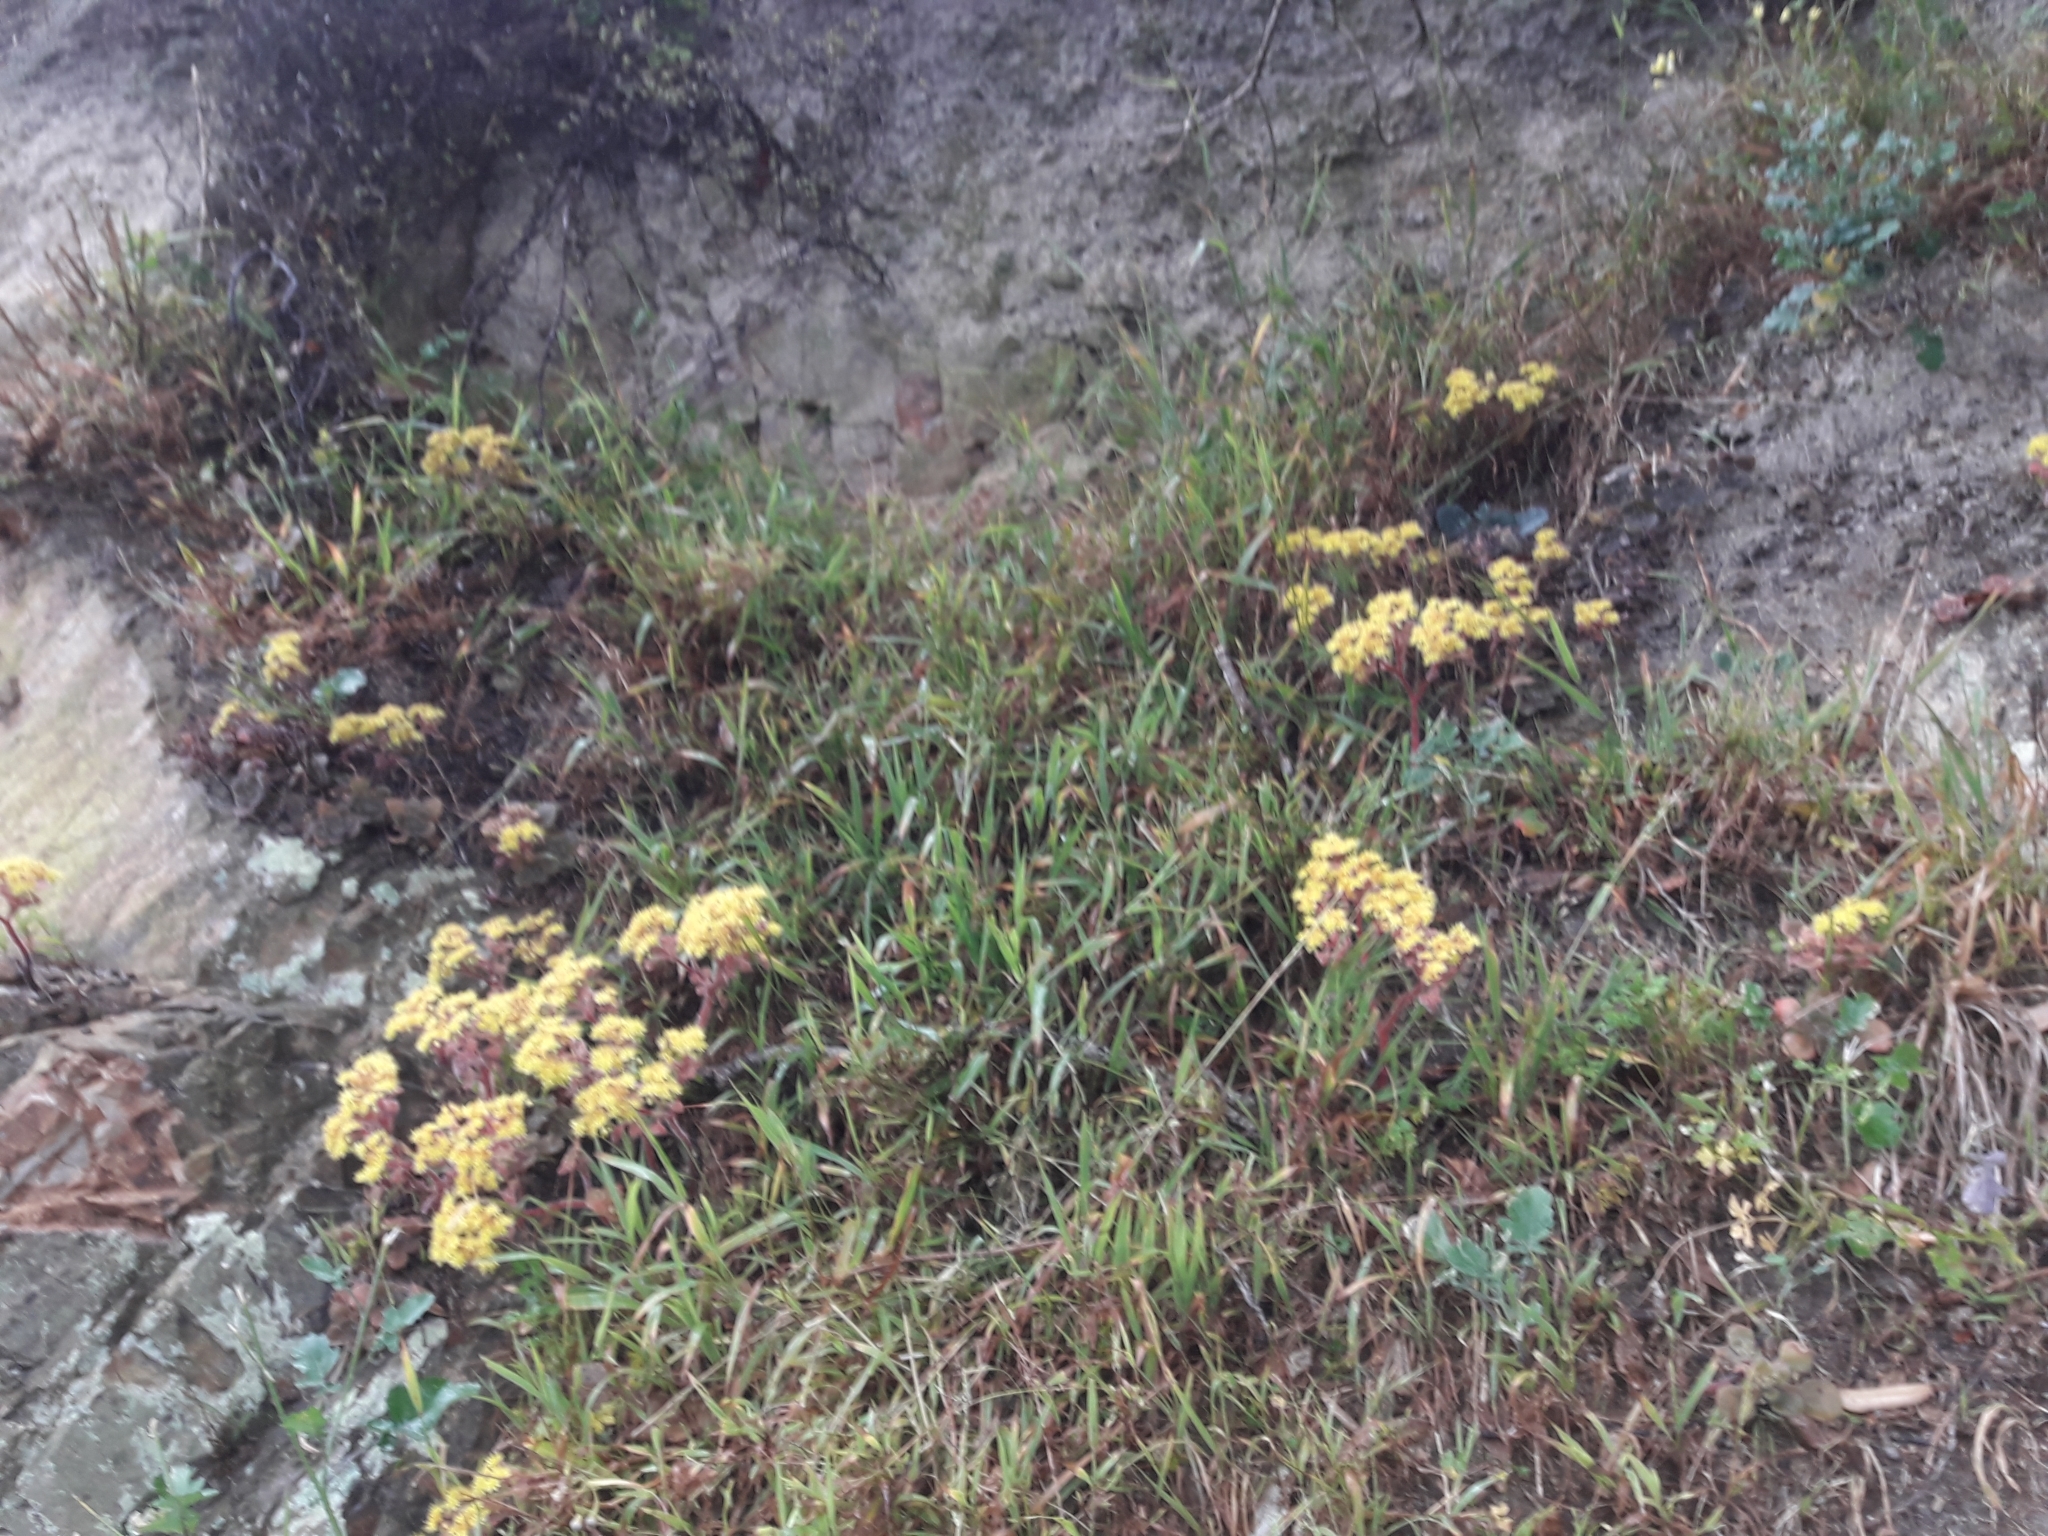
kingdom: Plantae
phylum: Tracheophyta
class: Magnoliopsida
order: Saxifragales
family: Crassulaceae
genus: Aichryson
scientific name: Aichryson laxum
